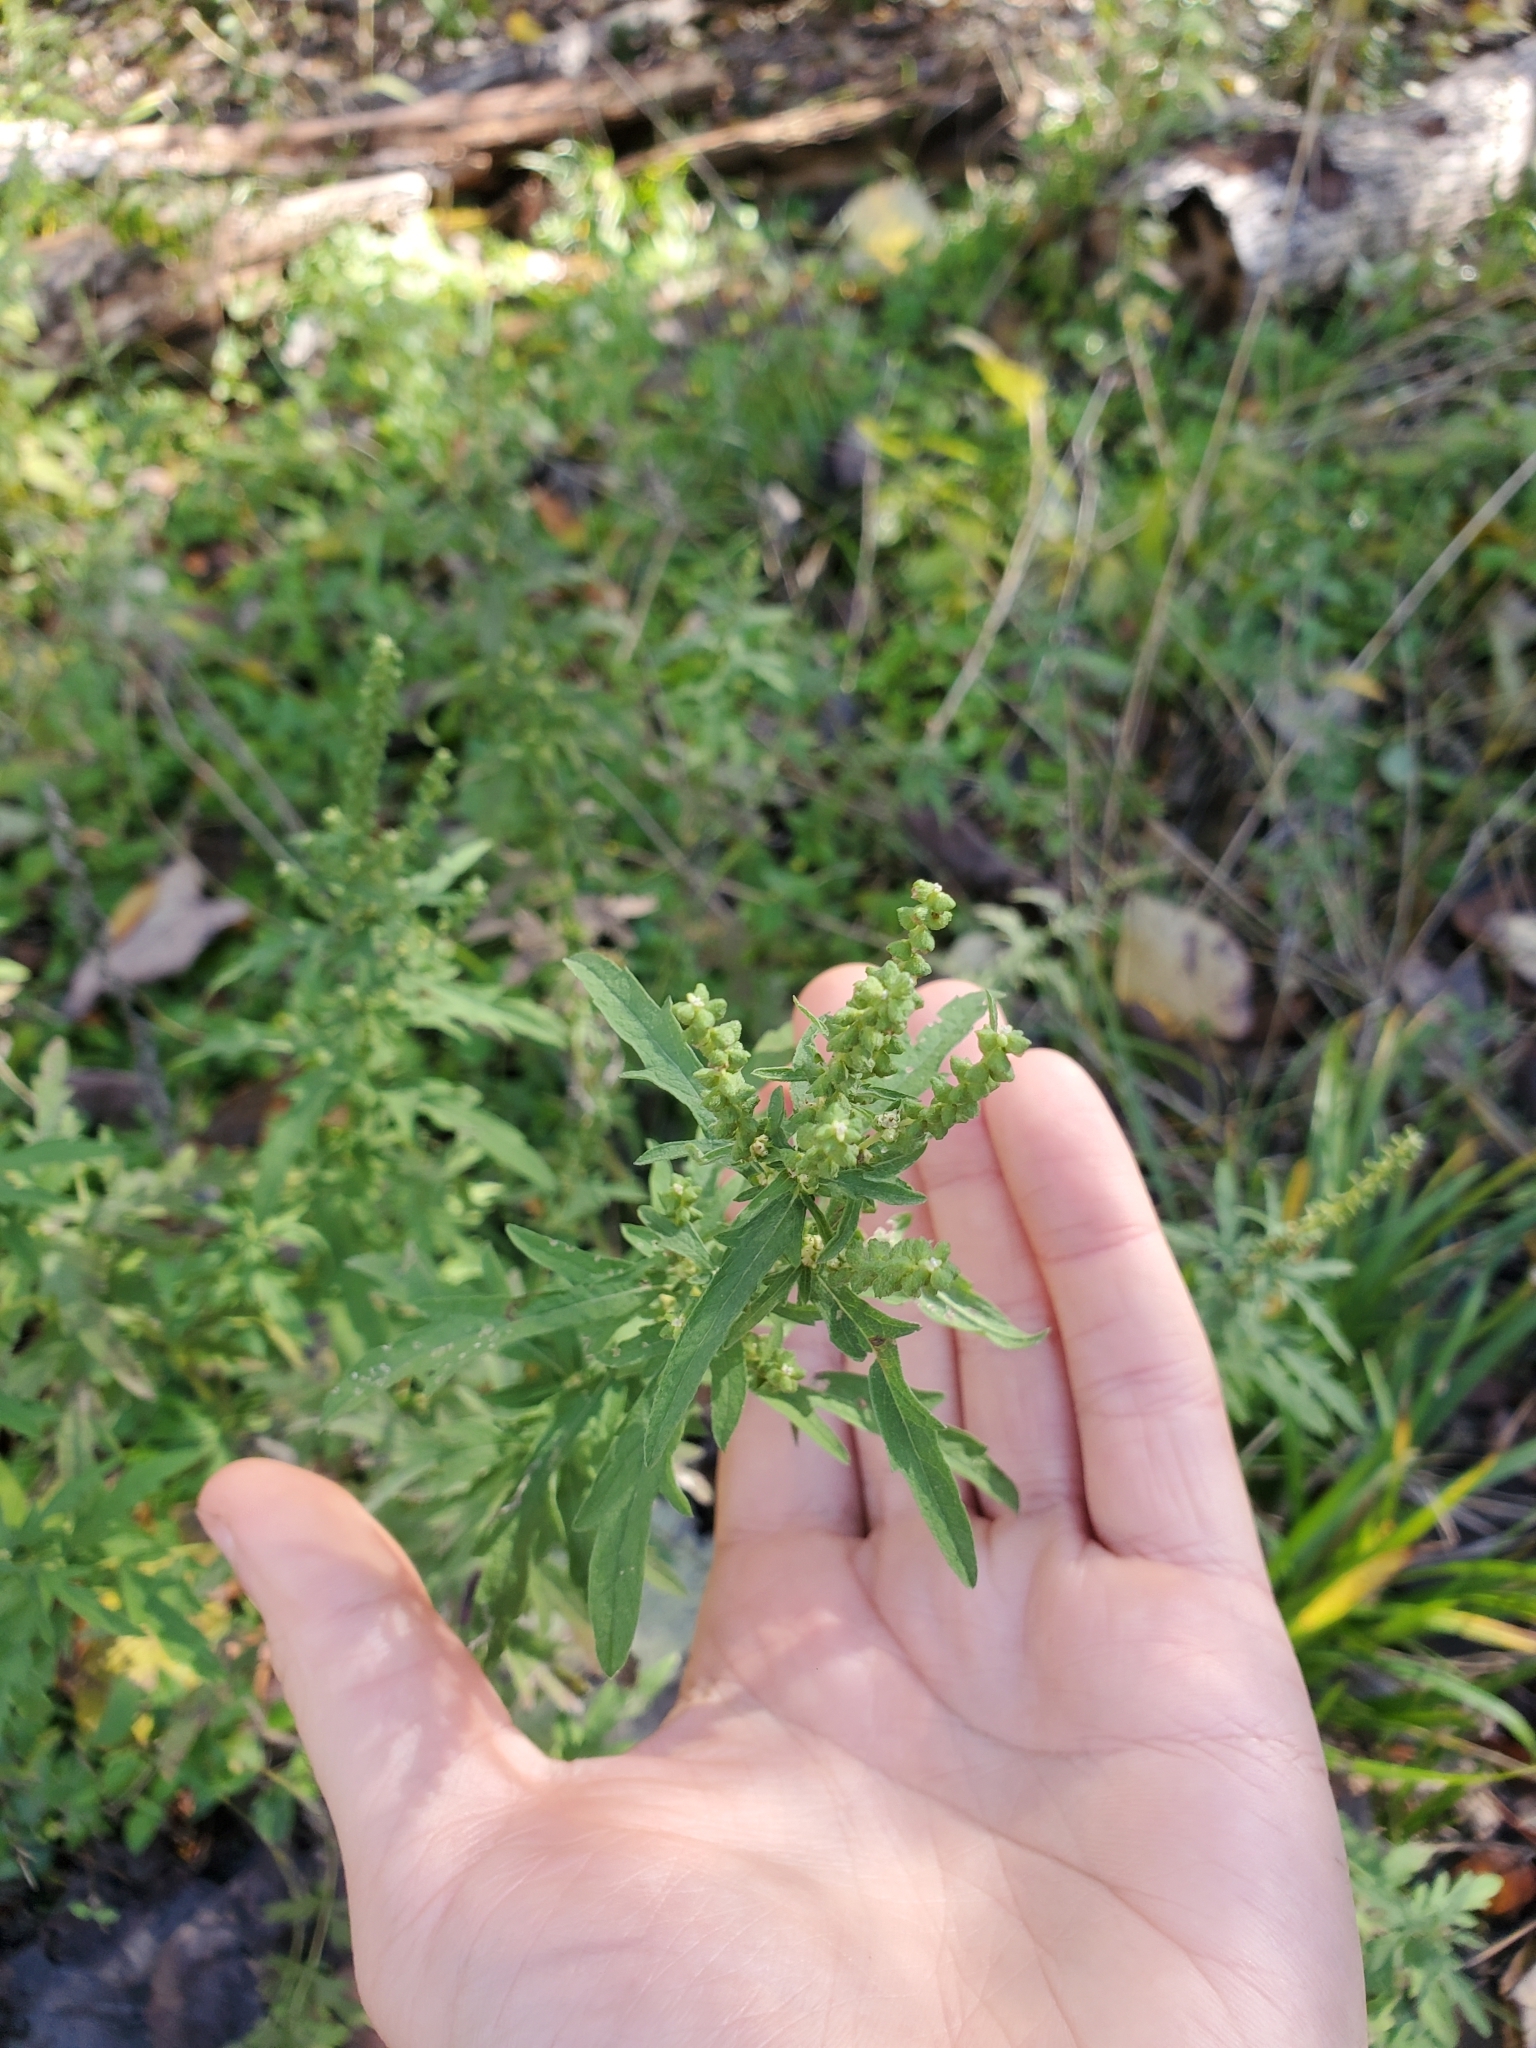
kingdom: Plantae
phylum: Tracheophyta
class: Magnoliopsida
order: Asterales
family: Asteraceae
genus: Ambrosia
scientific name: Ambrosia psilostachya
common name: Perennial ragweed
